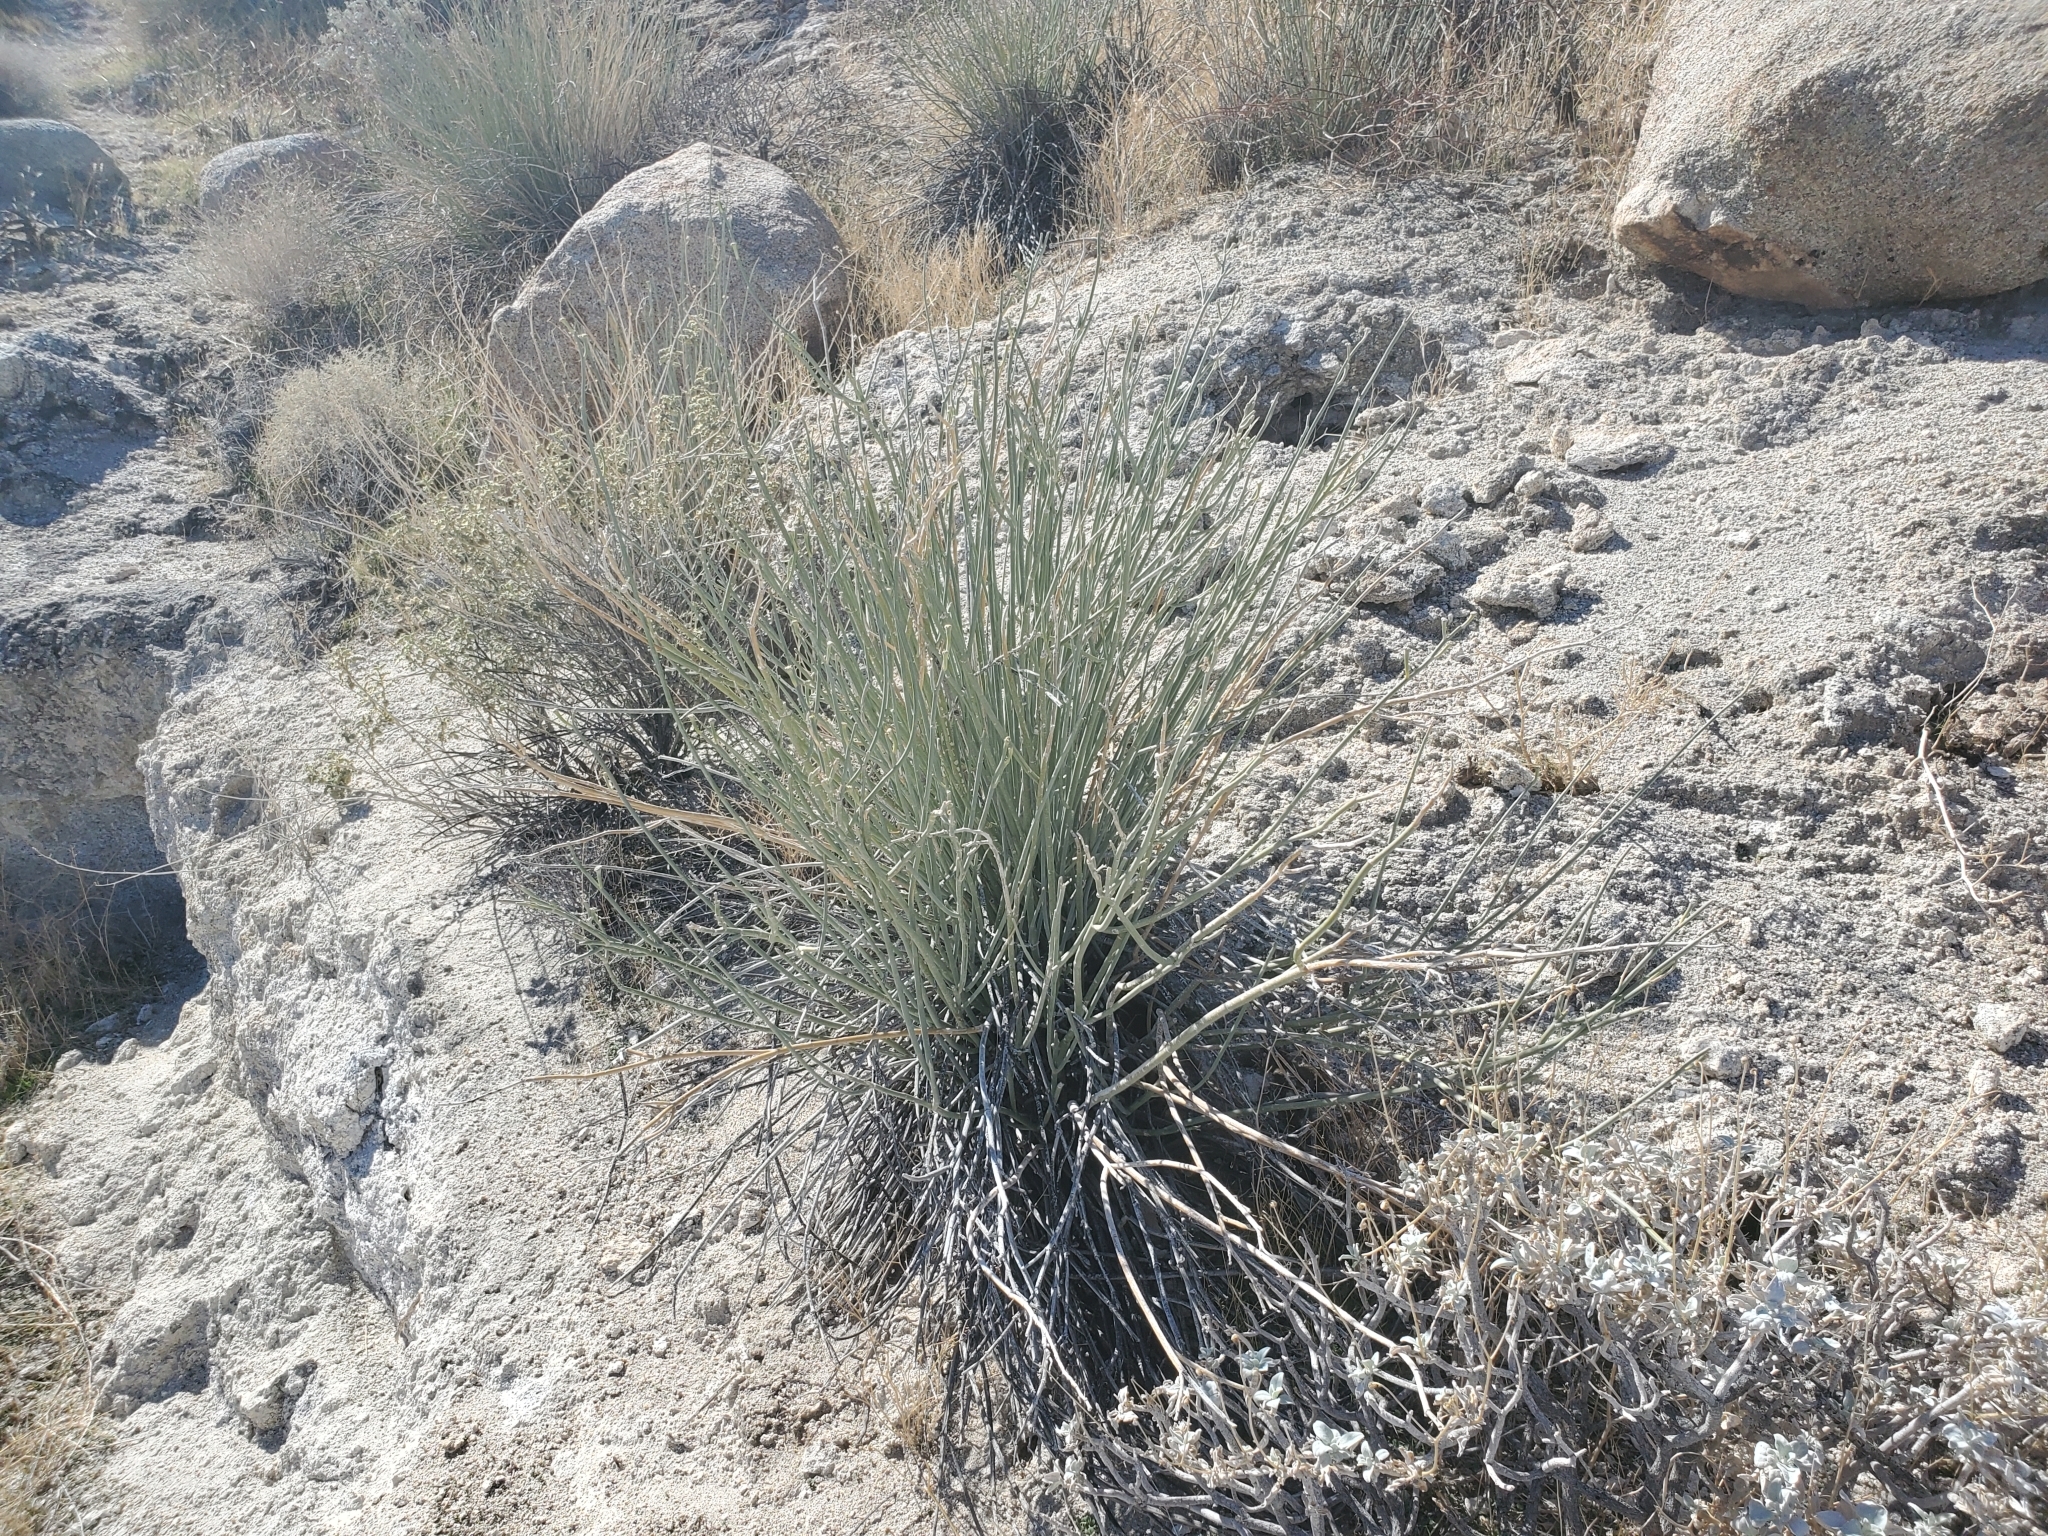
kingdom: Plantae
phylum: Tracheophyta
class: Magnoliopsida
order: Gentianales
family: Apocynaceae
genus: Asclepias
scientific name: Asclepias albicans
